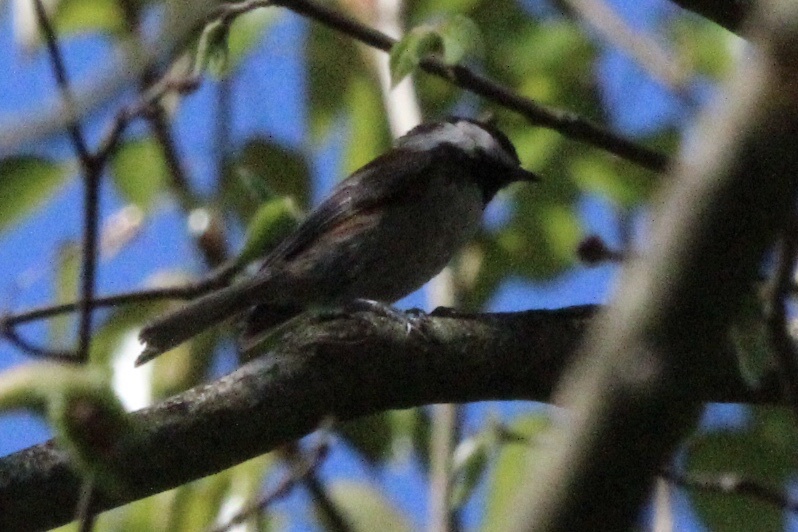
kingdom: Animalia
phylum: Chordata
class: Aves
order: Passeriformes
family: Paridae
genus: Poecile
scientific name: Poecile rufescens
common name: Chestnut-backed chickadee
